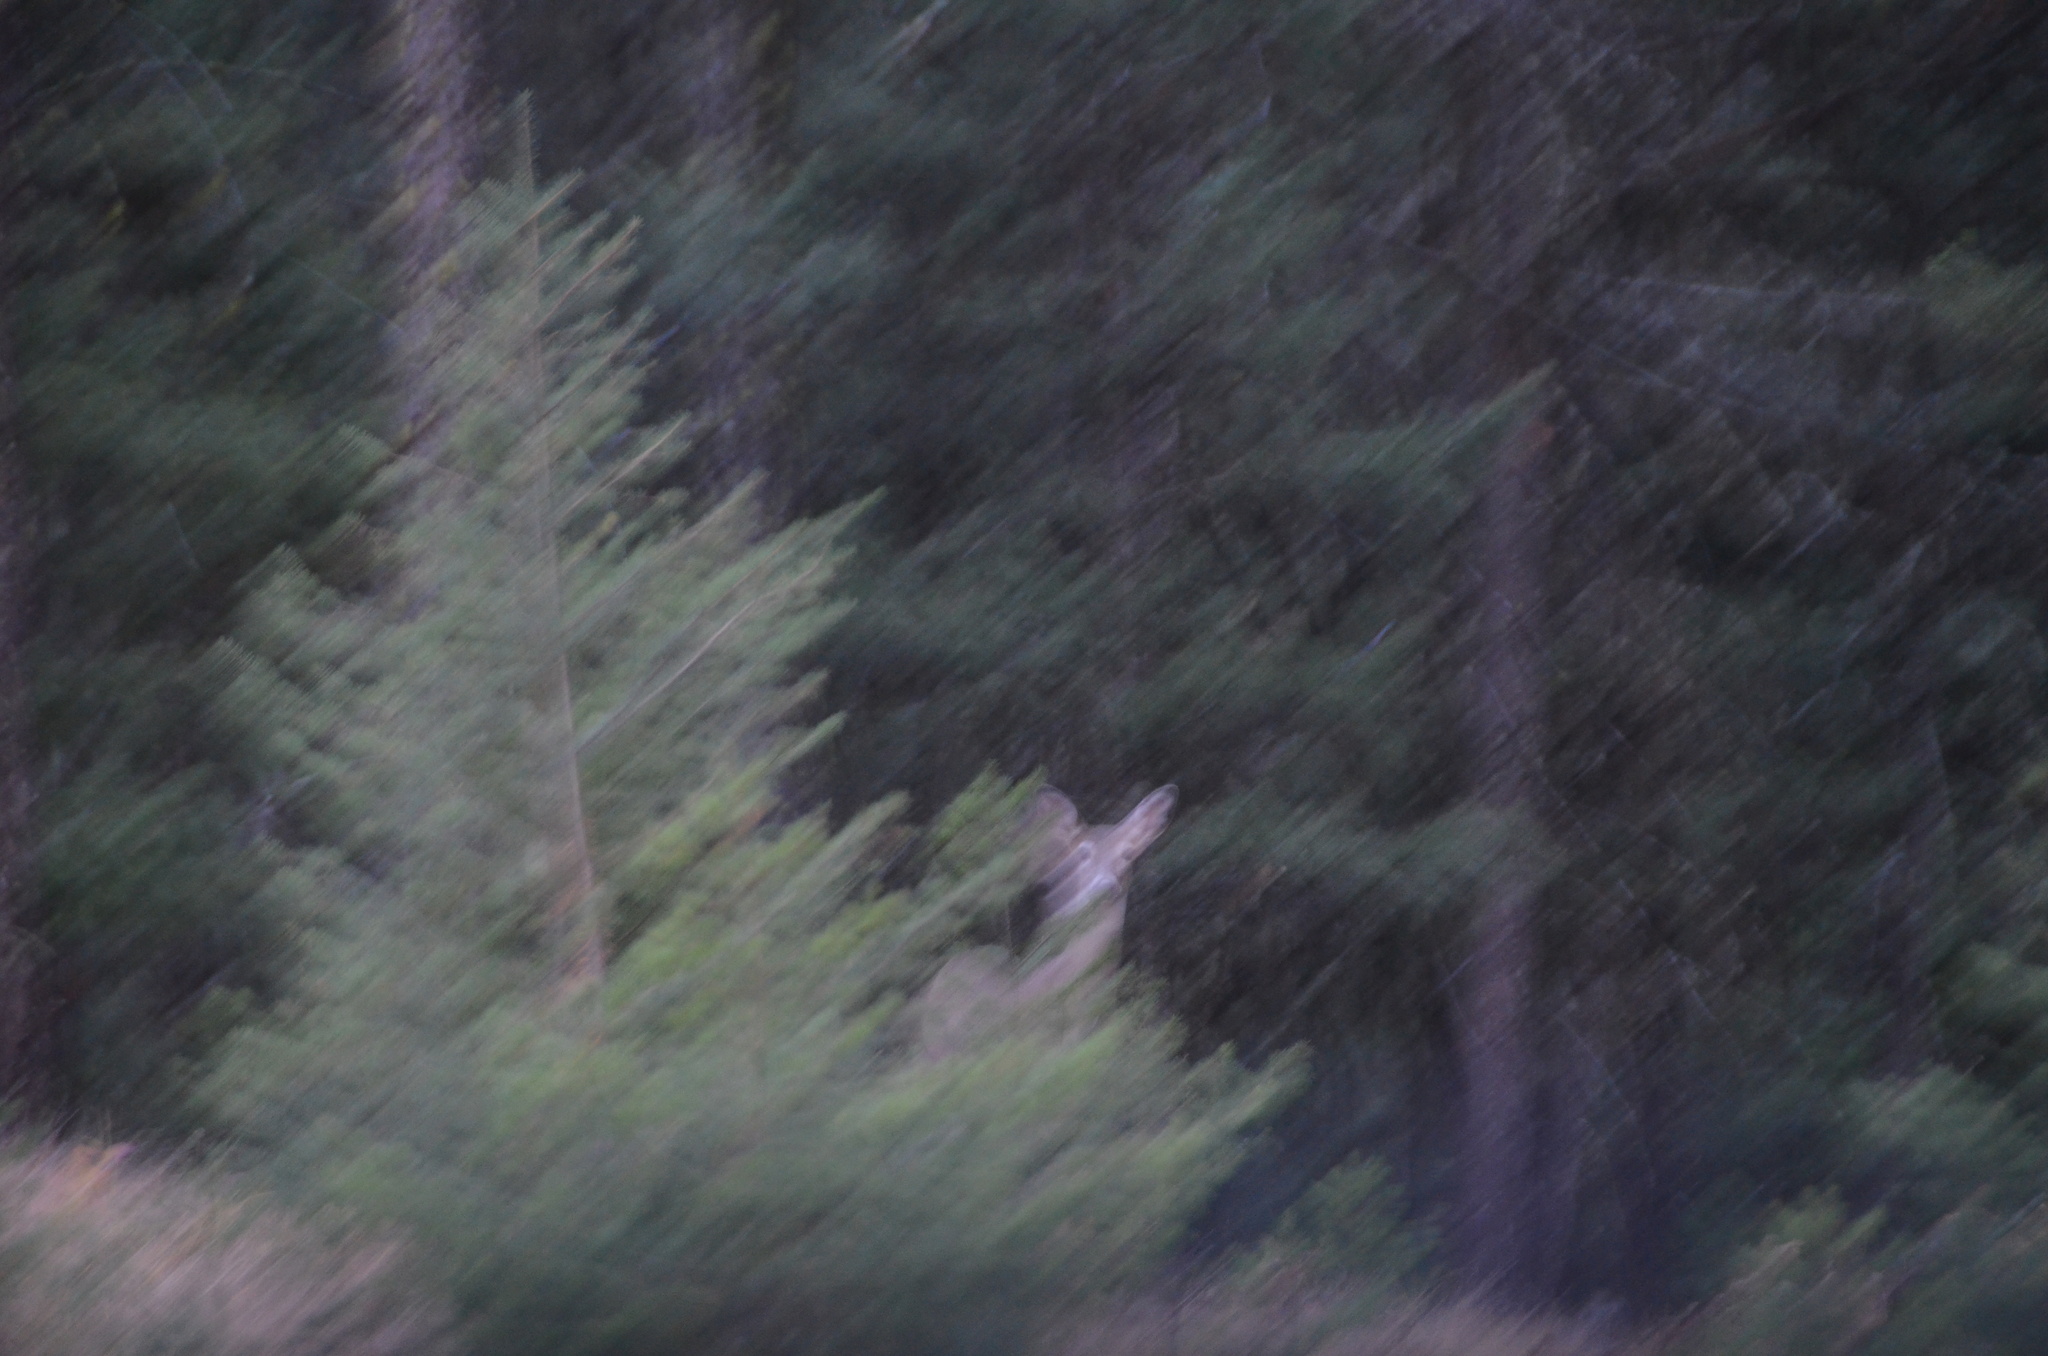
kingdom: Animalia
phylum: Chordata
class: Mammalia
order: Artiodactyla
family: Cervidae
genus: Odocoileus
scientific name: Odocoileus virginianus
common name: White-tailed deer
